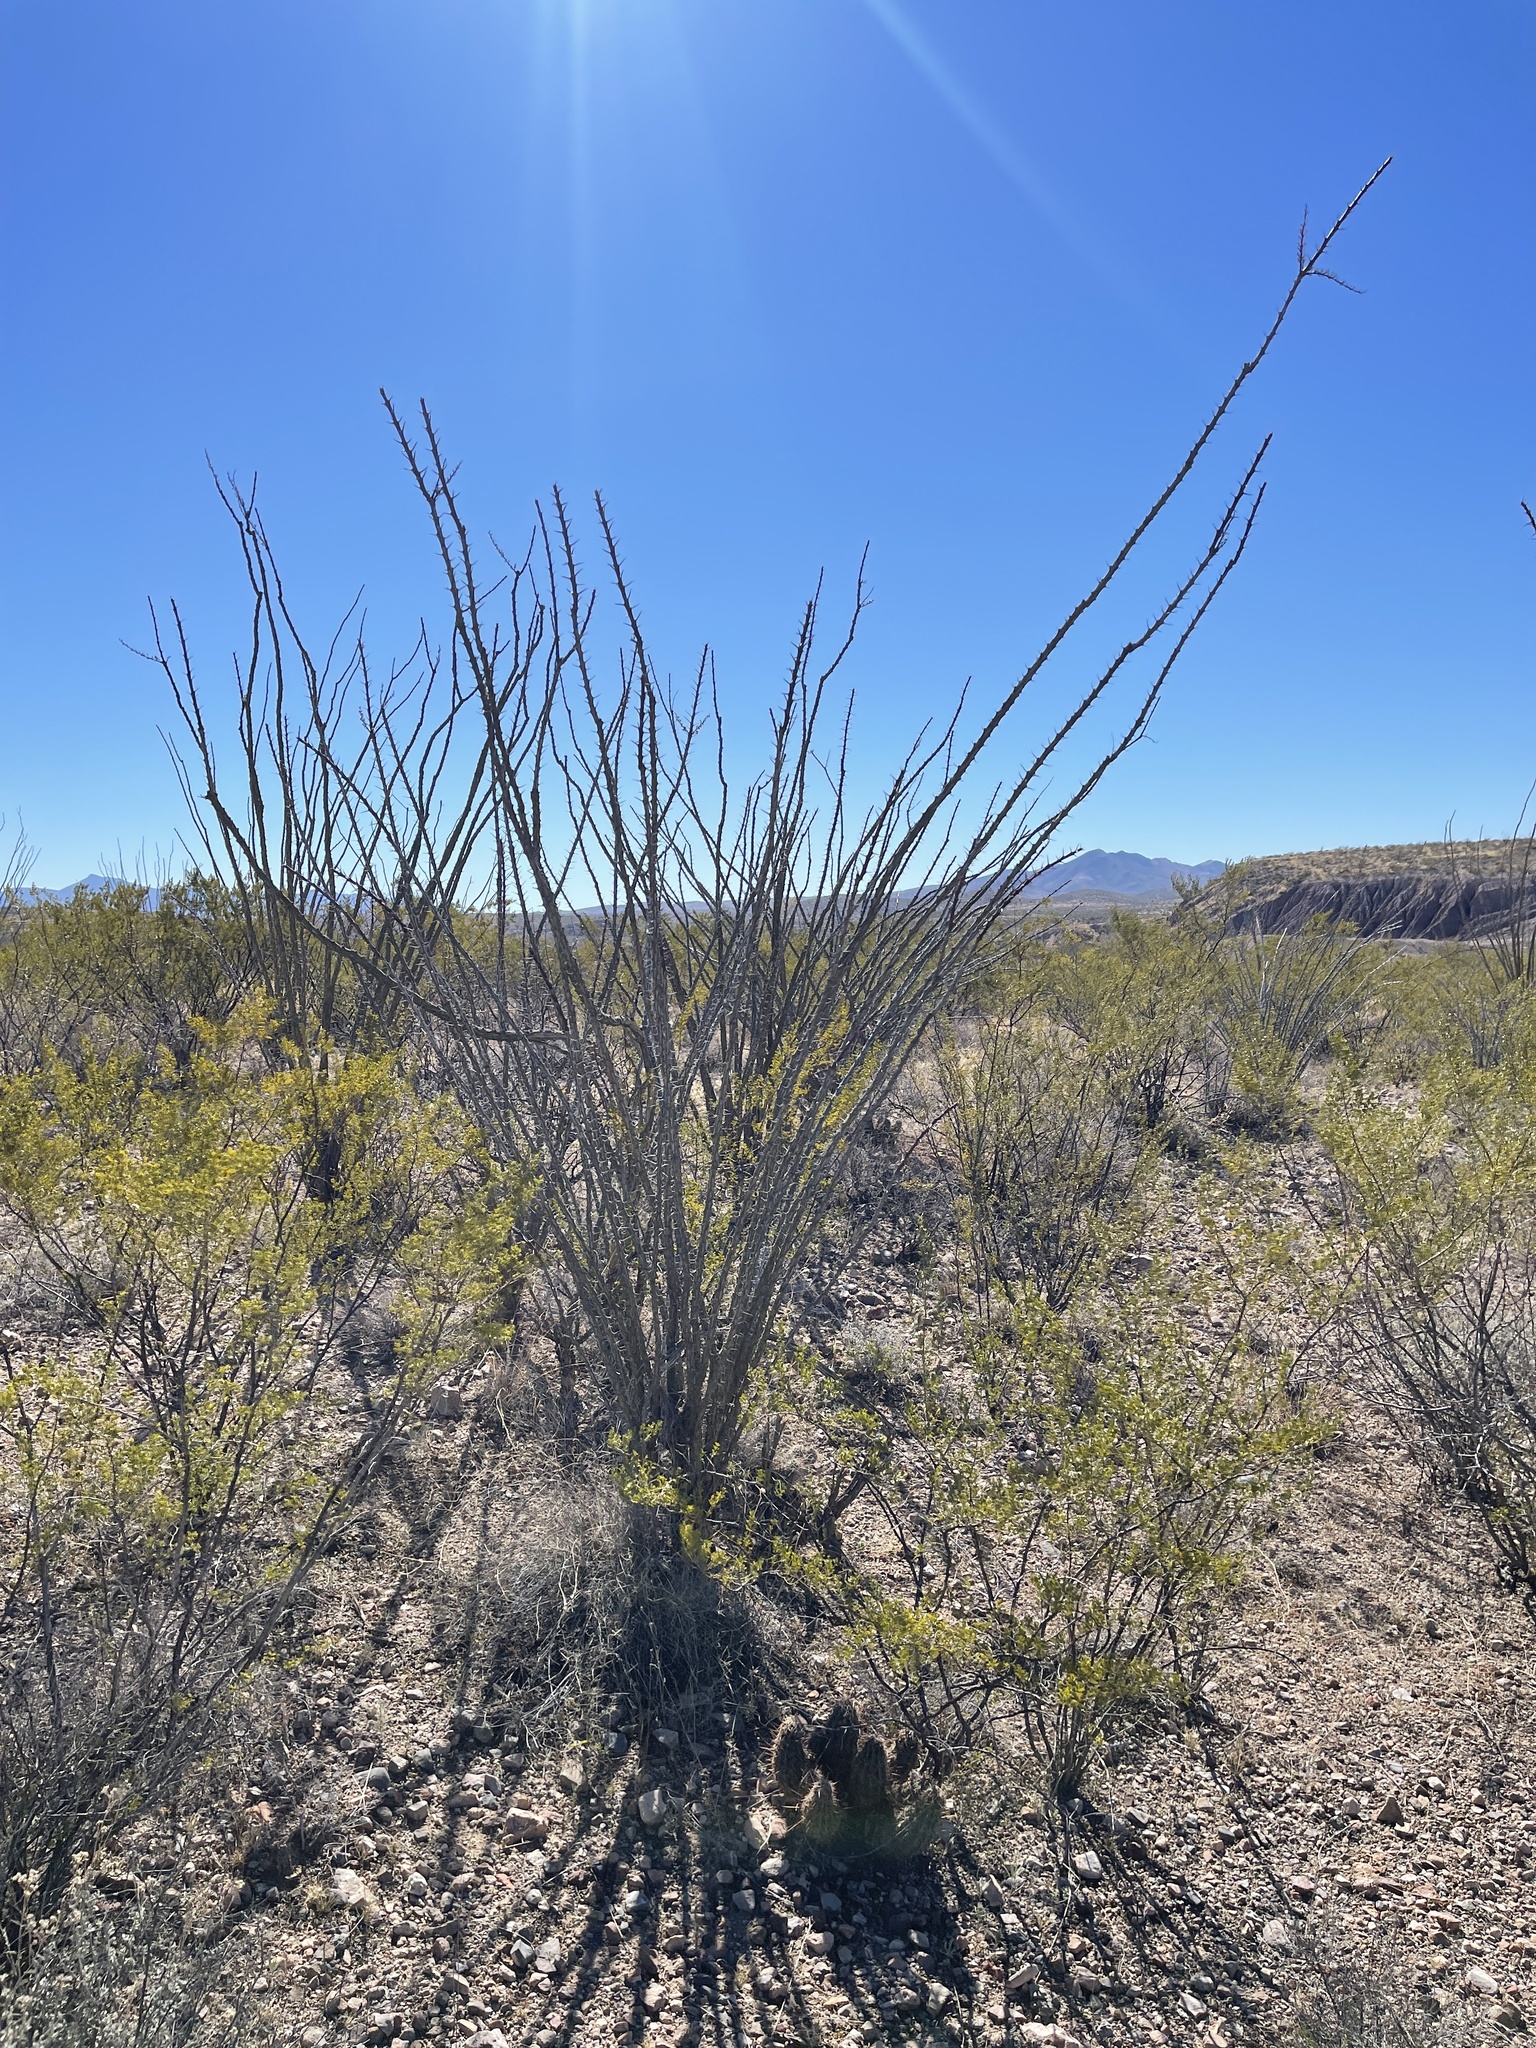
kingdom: Plantae
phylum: Tracheophyta
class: Magnoliopsida
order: Ericales
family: Fouquieriaceae
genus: Fouquieria
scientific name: Fouquieria splendens
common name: Vine-cactus
